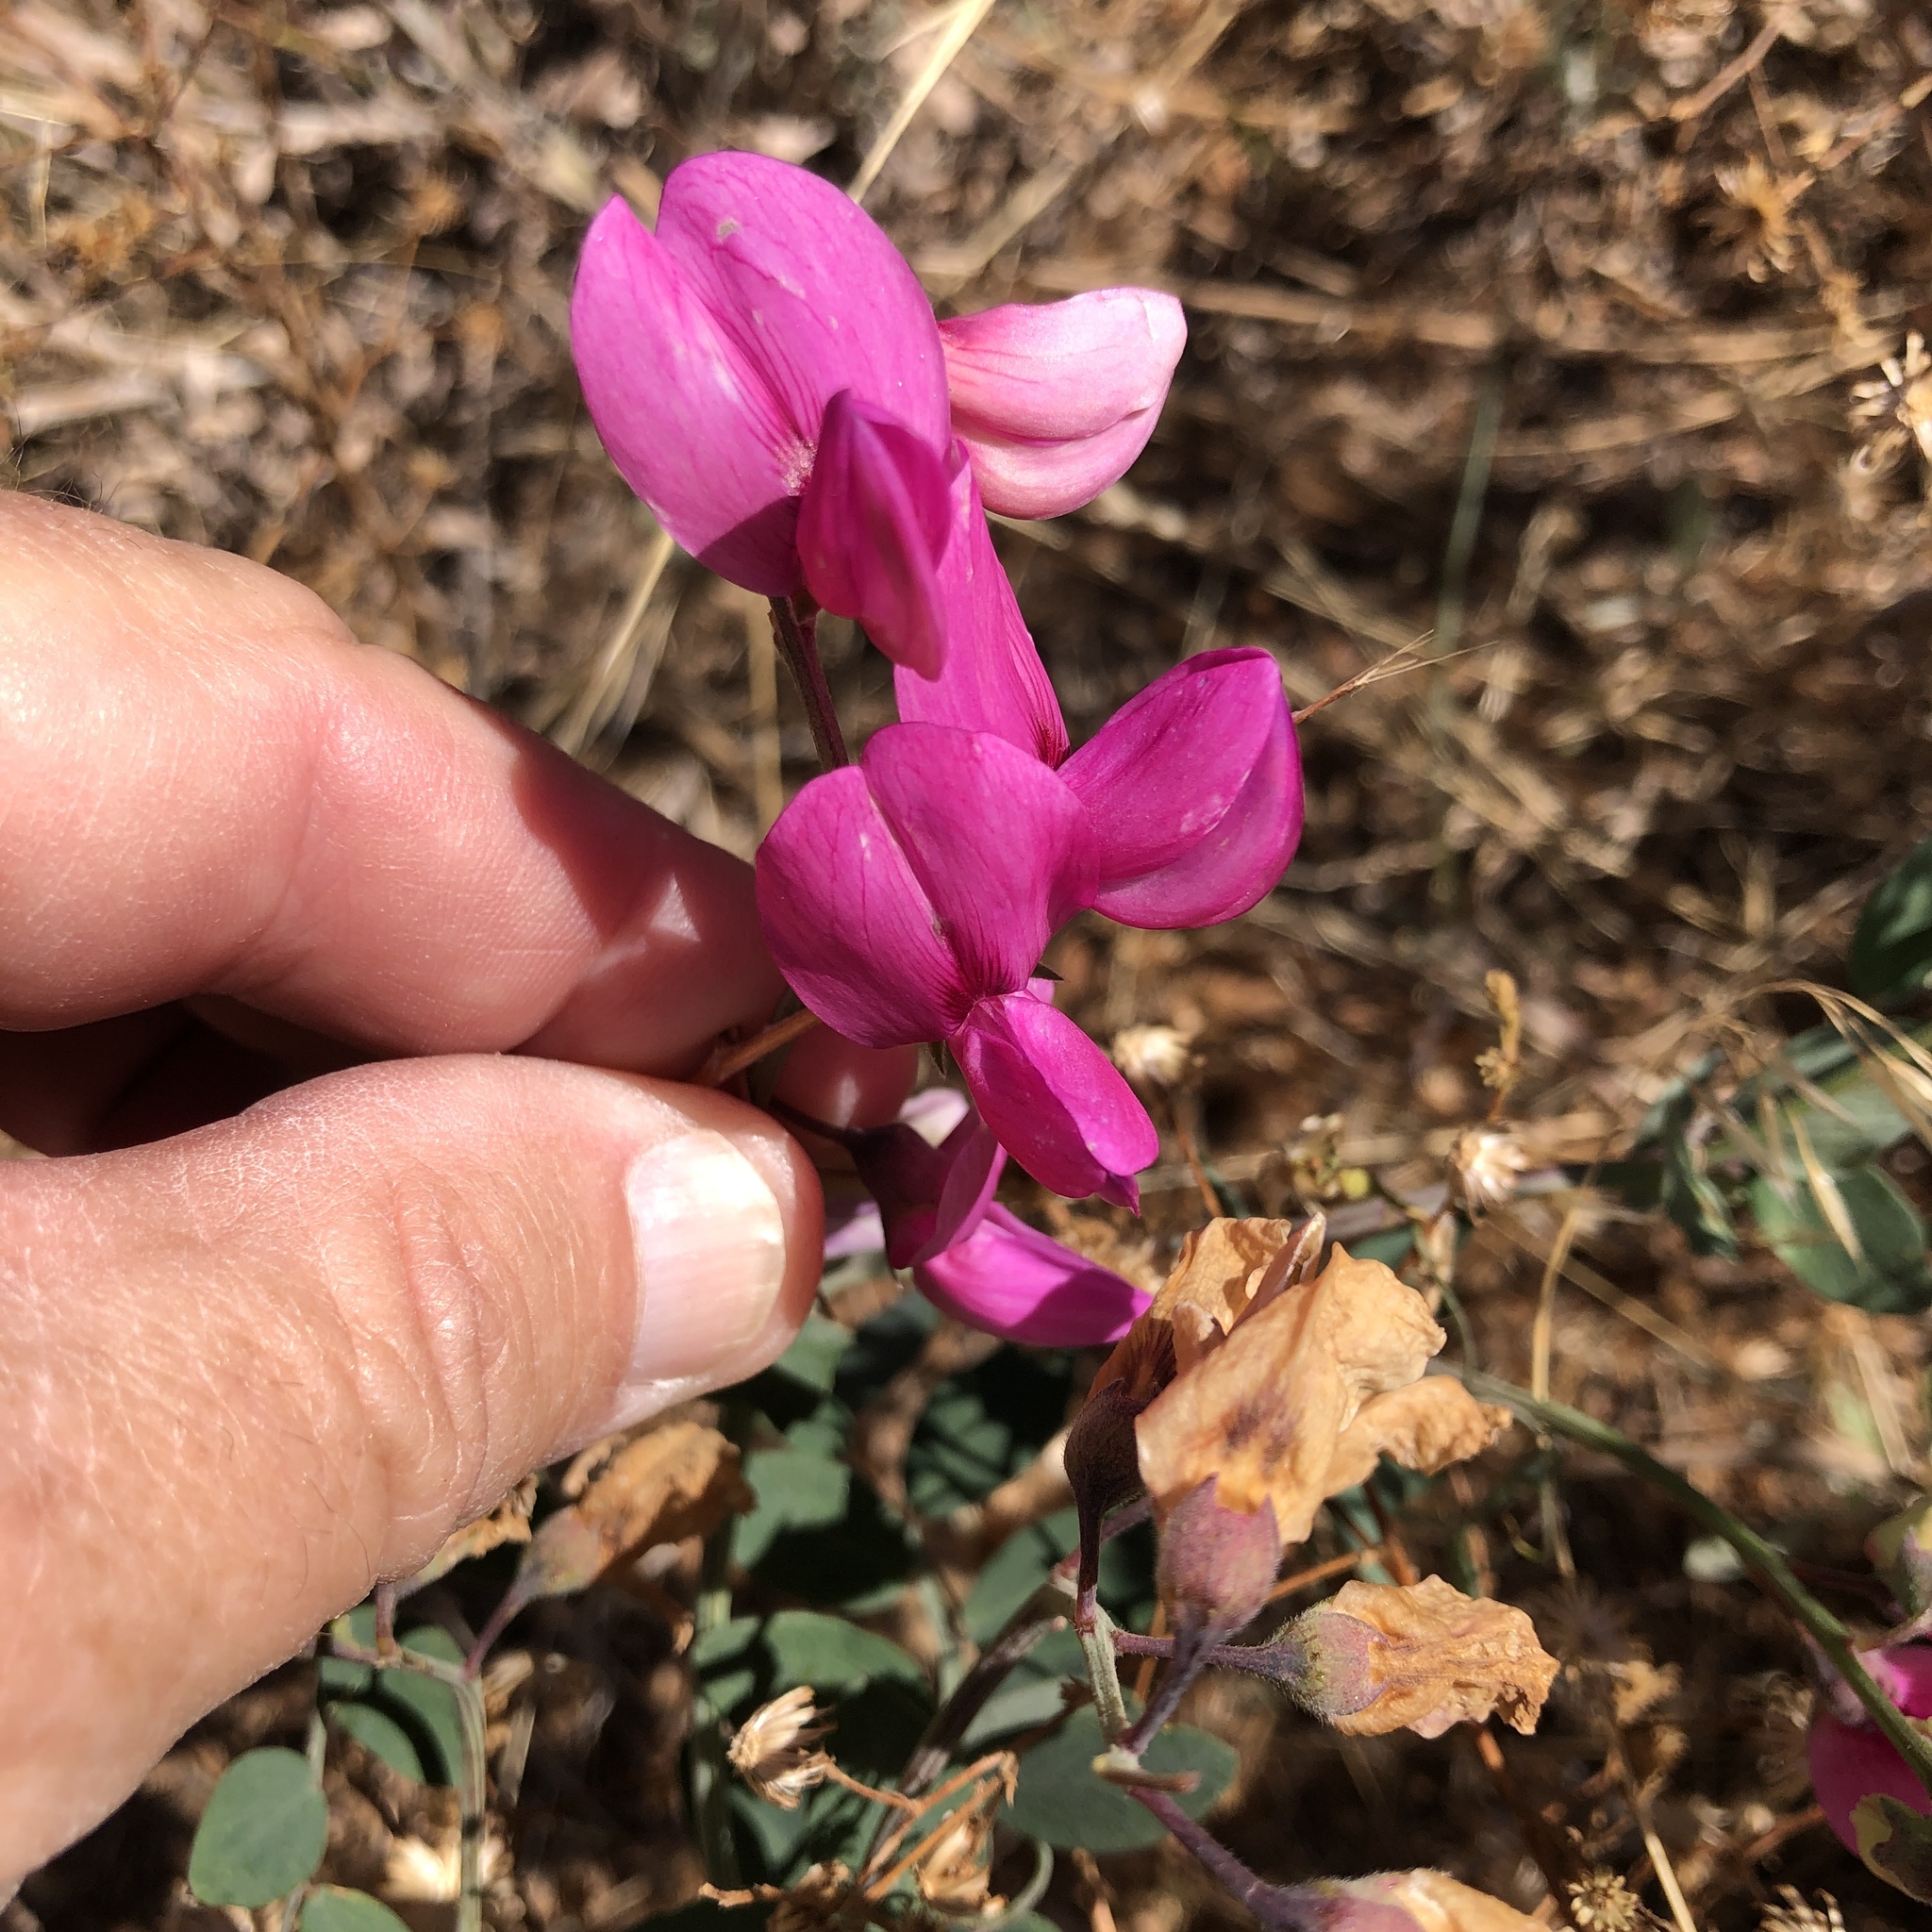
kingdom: Plantae
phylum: Tracheophyta
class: Magnoliopsida
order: Fabales
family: Fabaceae
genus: Lathyrus
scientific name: Lathyrus vestitus
